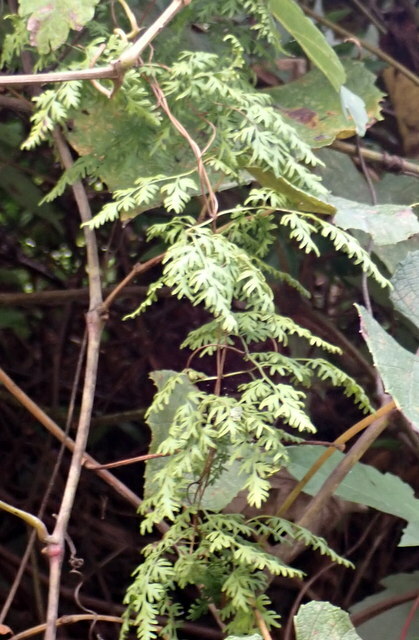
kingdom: Plantae
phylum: Tracheophyta
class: Polypodiopsida
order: Schizaeales
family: Lygodiaceae
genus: Lygodium
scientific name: Lygodium japonicum
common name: Japanese climbing fern
